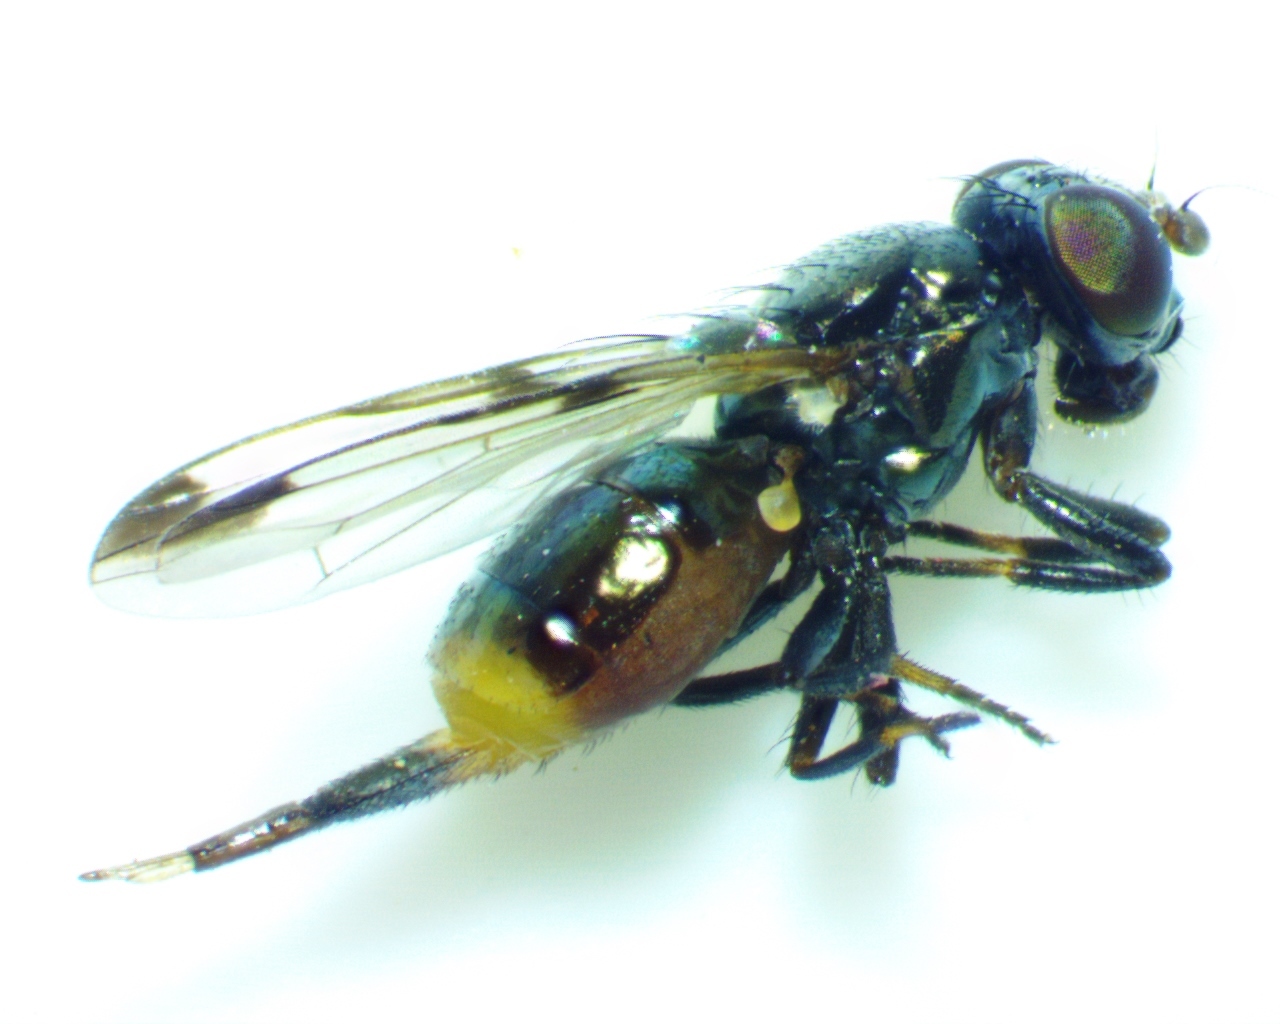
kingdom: Animalia
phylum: Arthropoda
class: Insecta
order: Diptera
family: Ulidiidae
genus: Euxesta
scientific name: Euxesta notata
